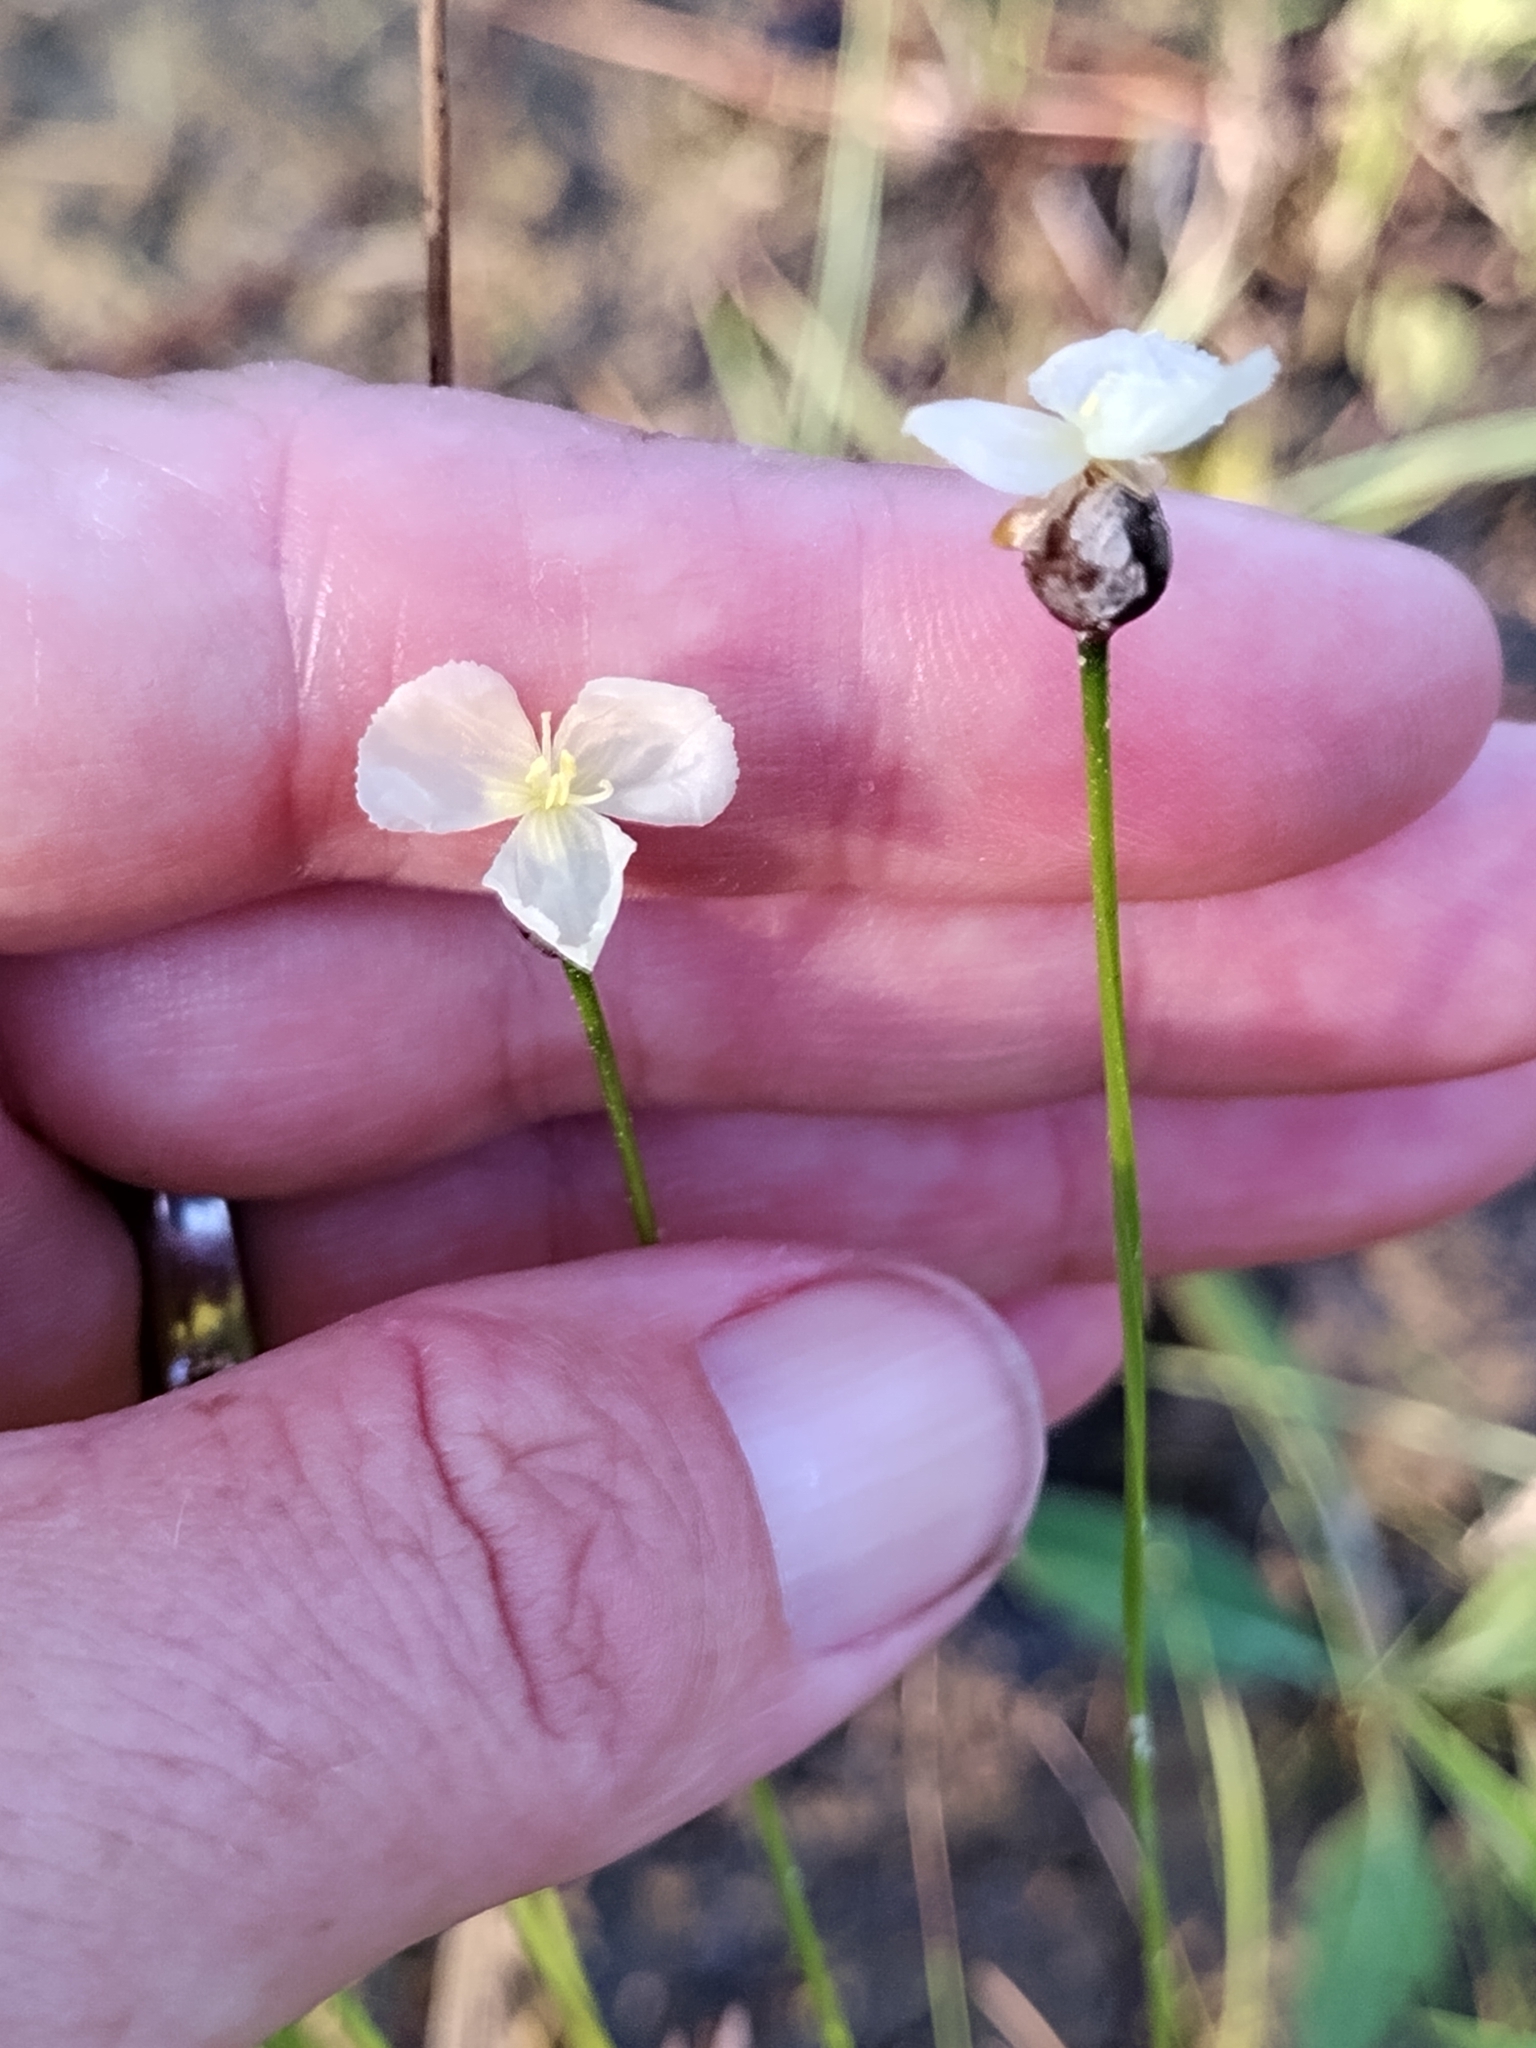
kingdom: Plantae
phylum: Tracheophyta
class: Liliopsida
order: Poales
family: Xyridaceae
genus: Xyris
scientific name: Xyris baldwiniana
